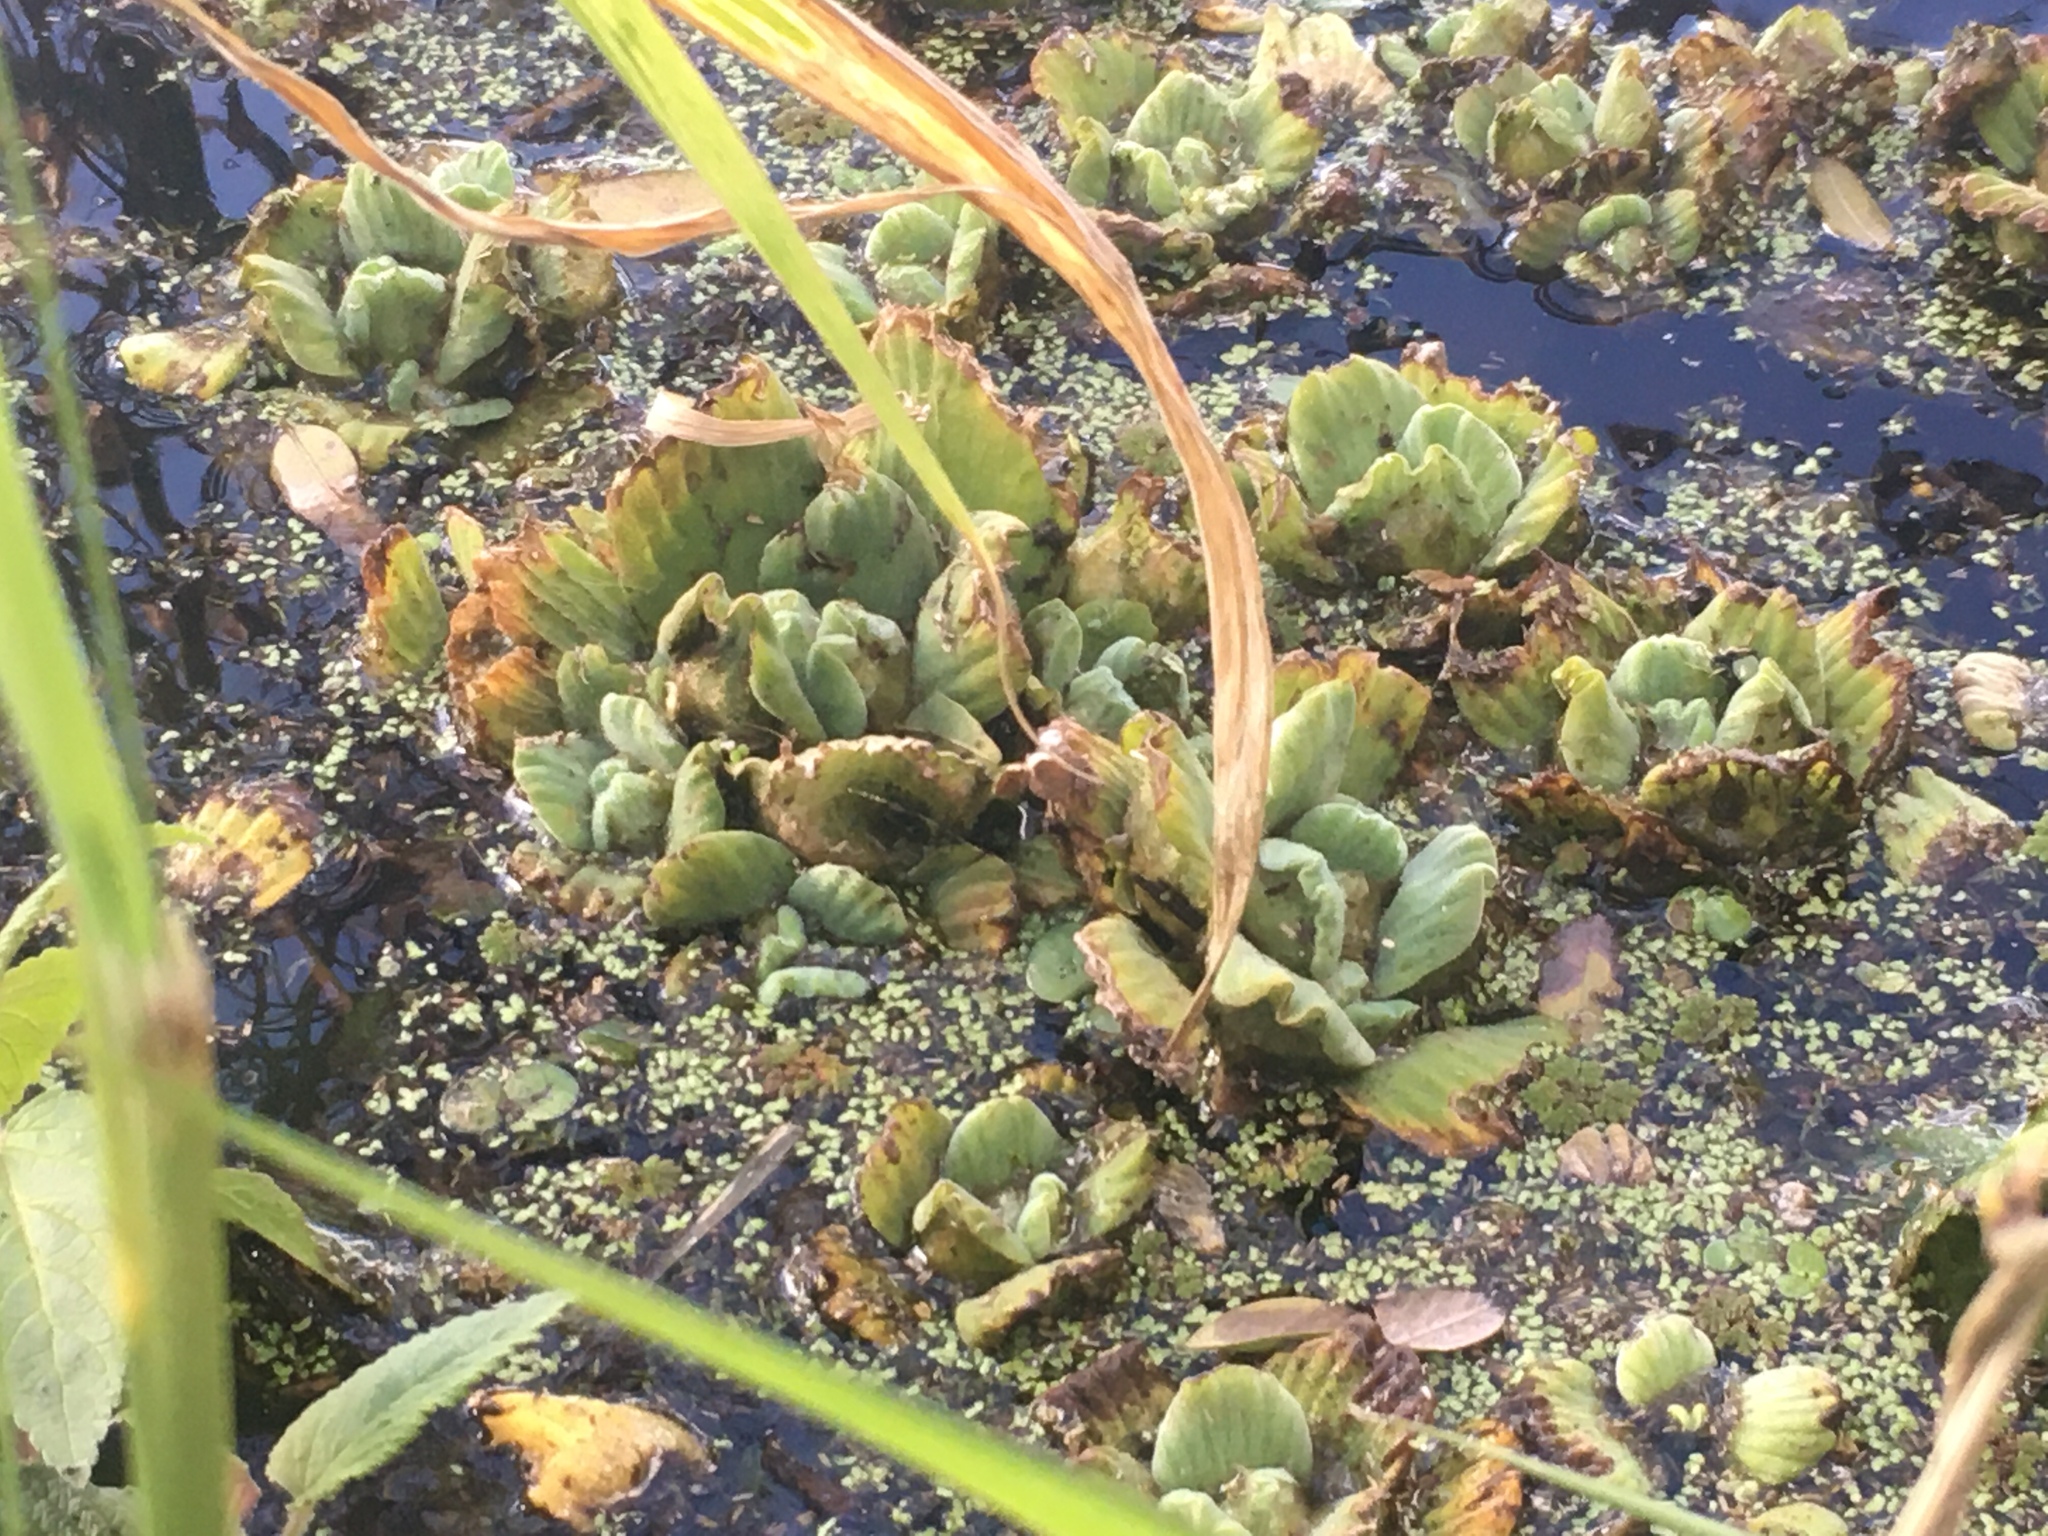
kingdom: Plantae
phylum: Tracheophyta
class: Liliopsida
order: Alismatales
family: Araceae
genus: Pistia
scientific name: Pistia stratiotes
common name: Water lettuce
